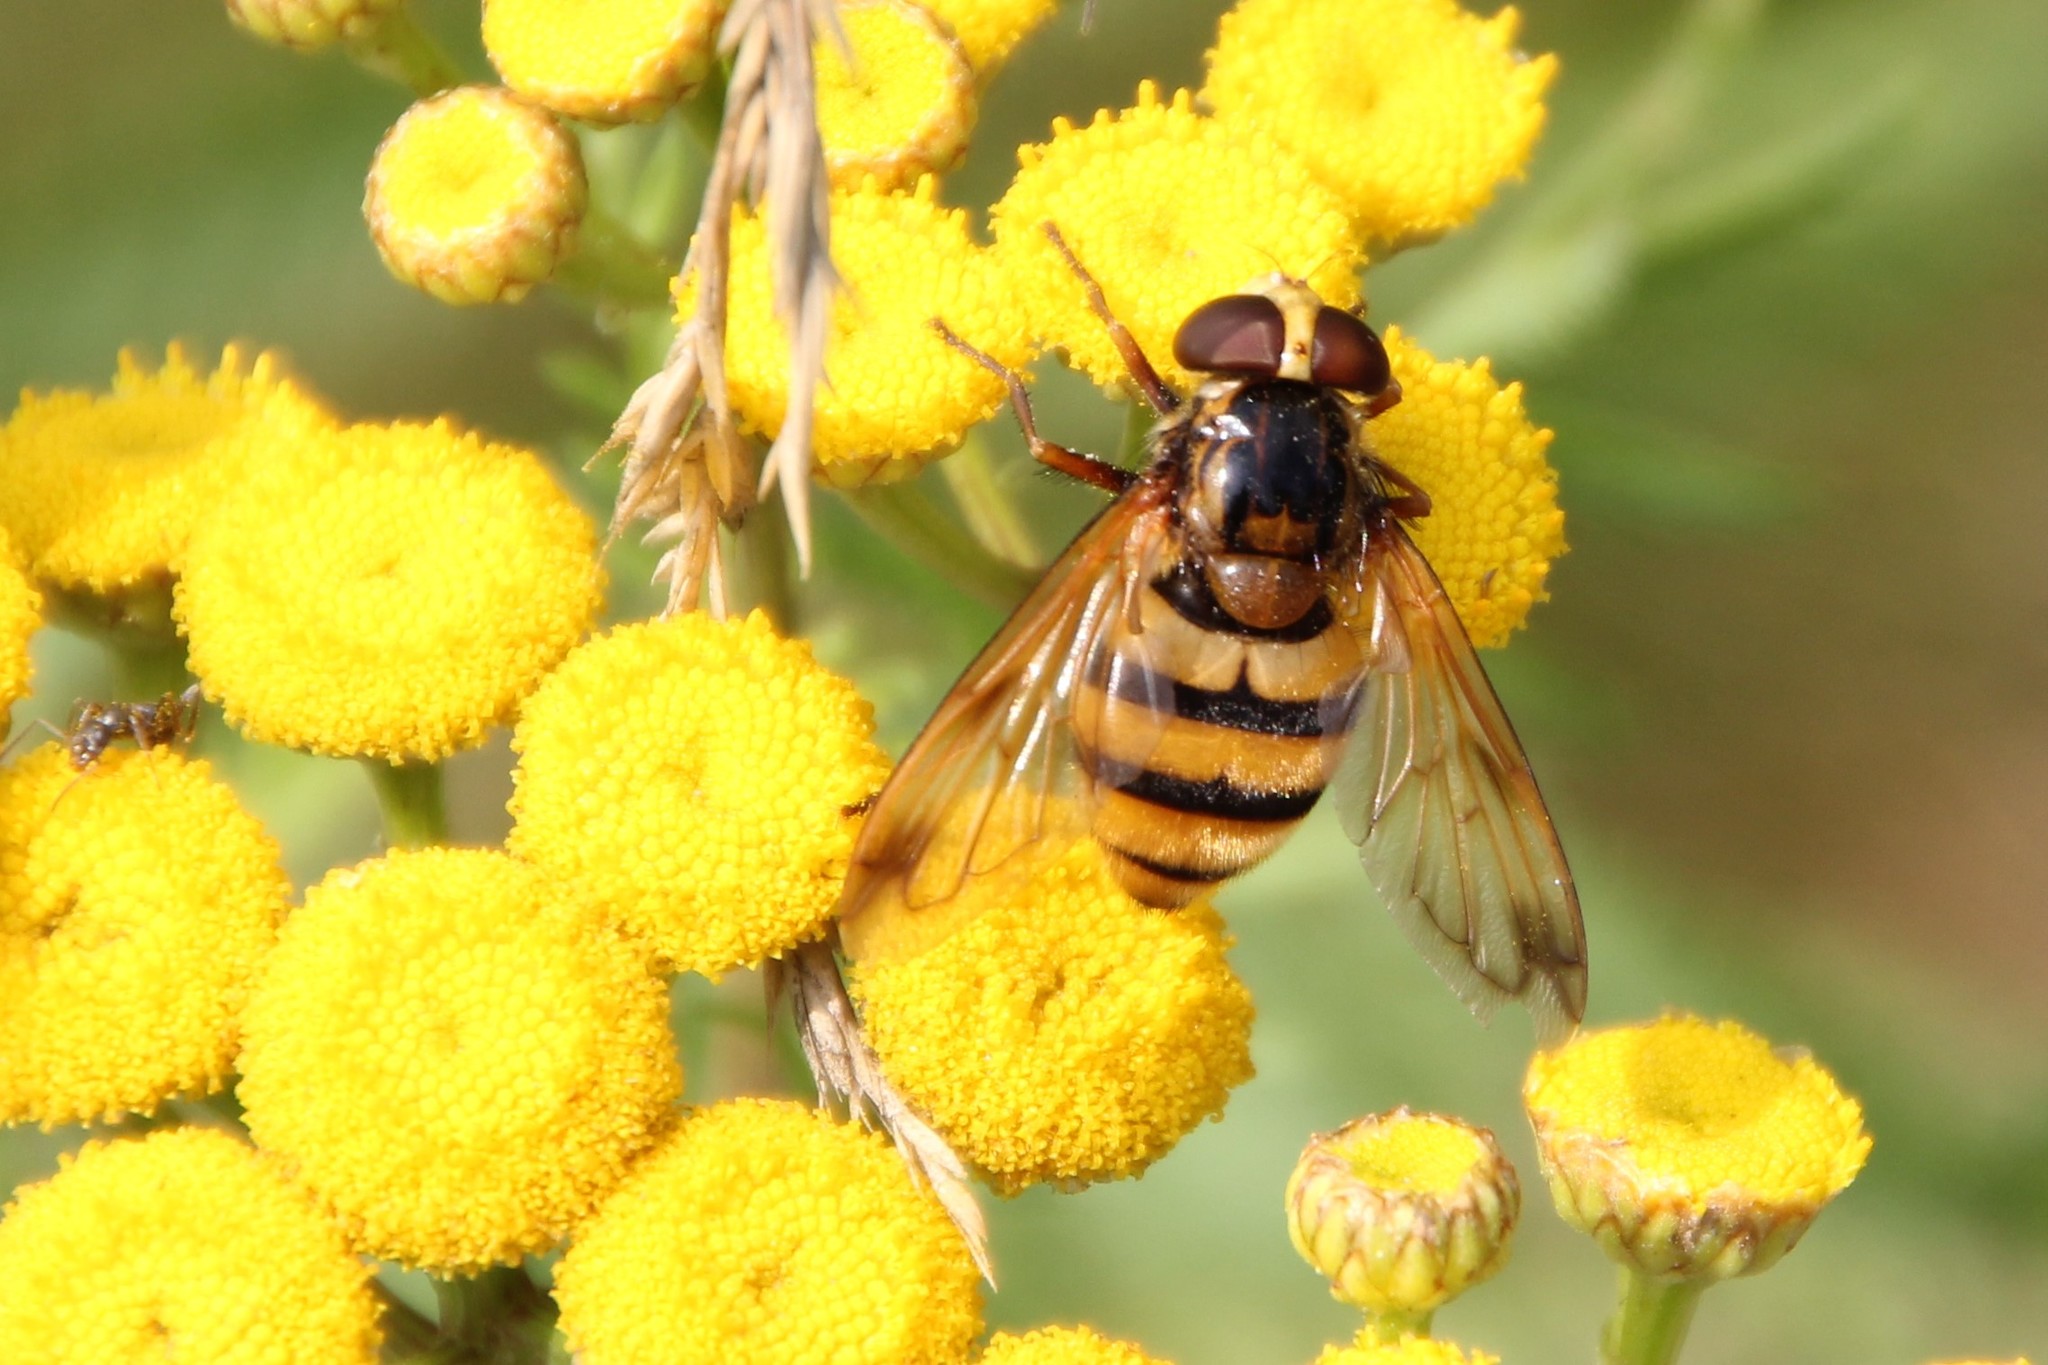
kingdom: Animalia
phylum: Arthropoda
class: Insecta
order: Diptera
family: Syrphidae
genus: Volucella
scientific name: Volucella inanis
